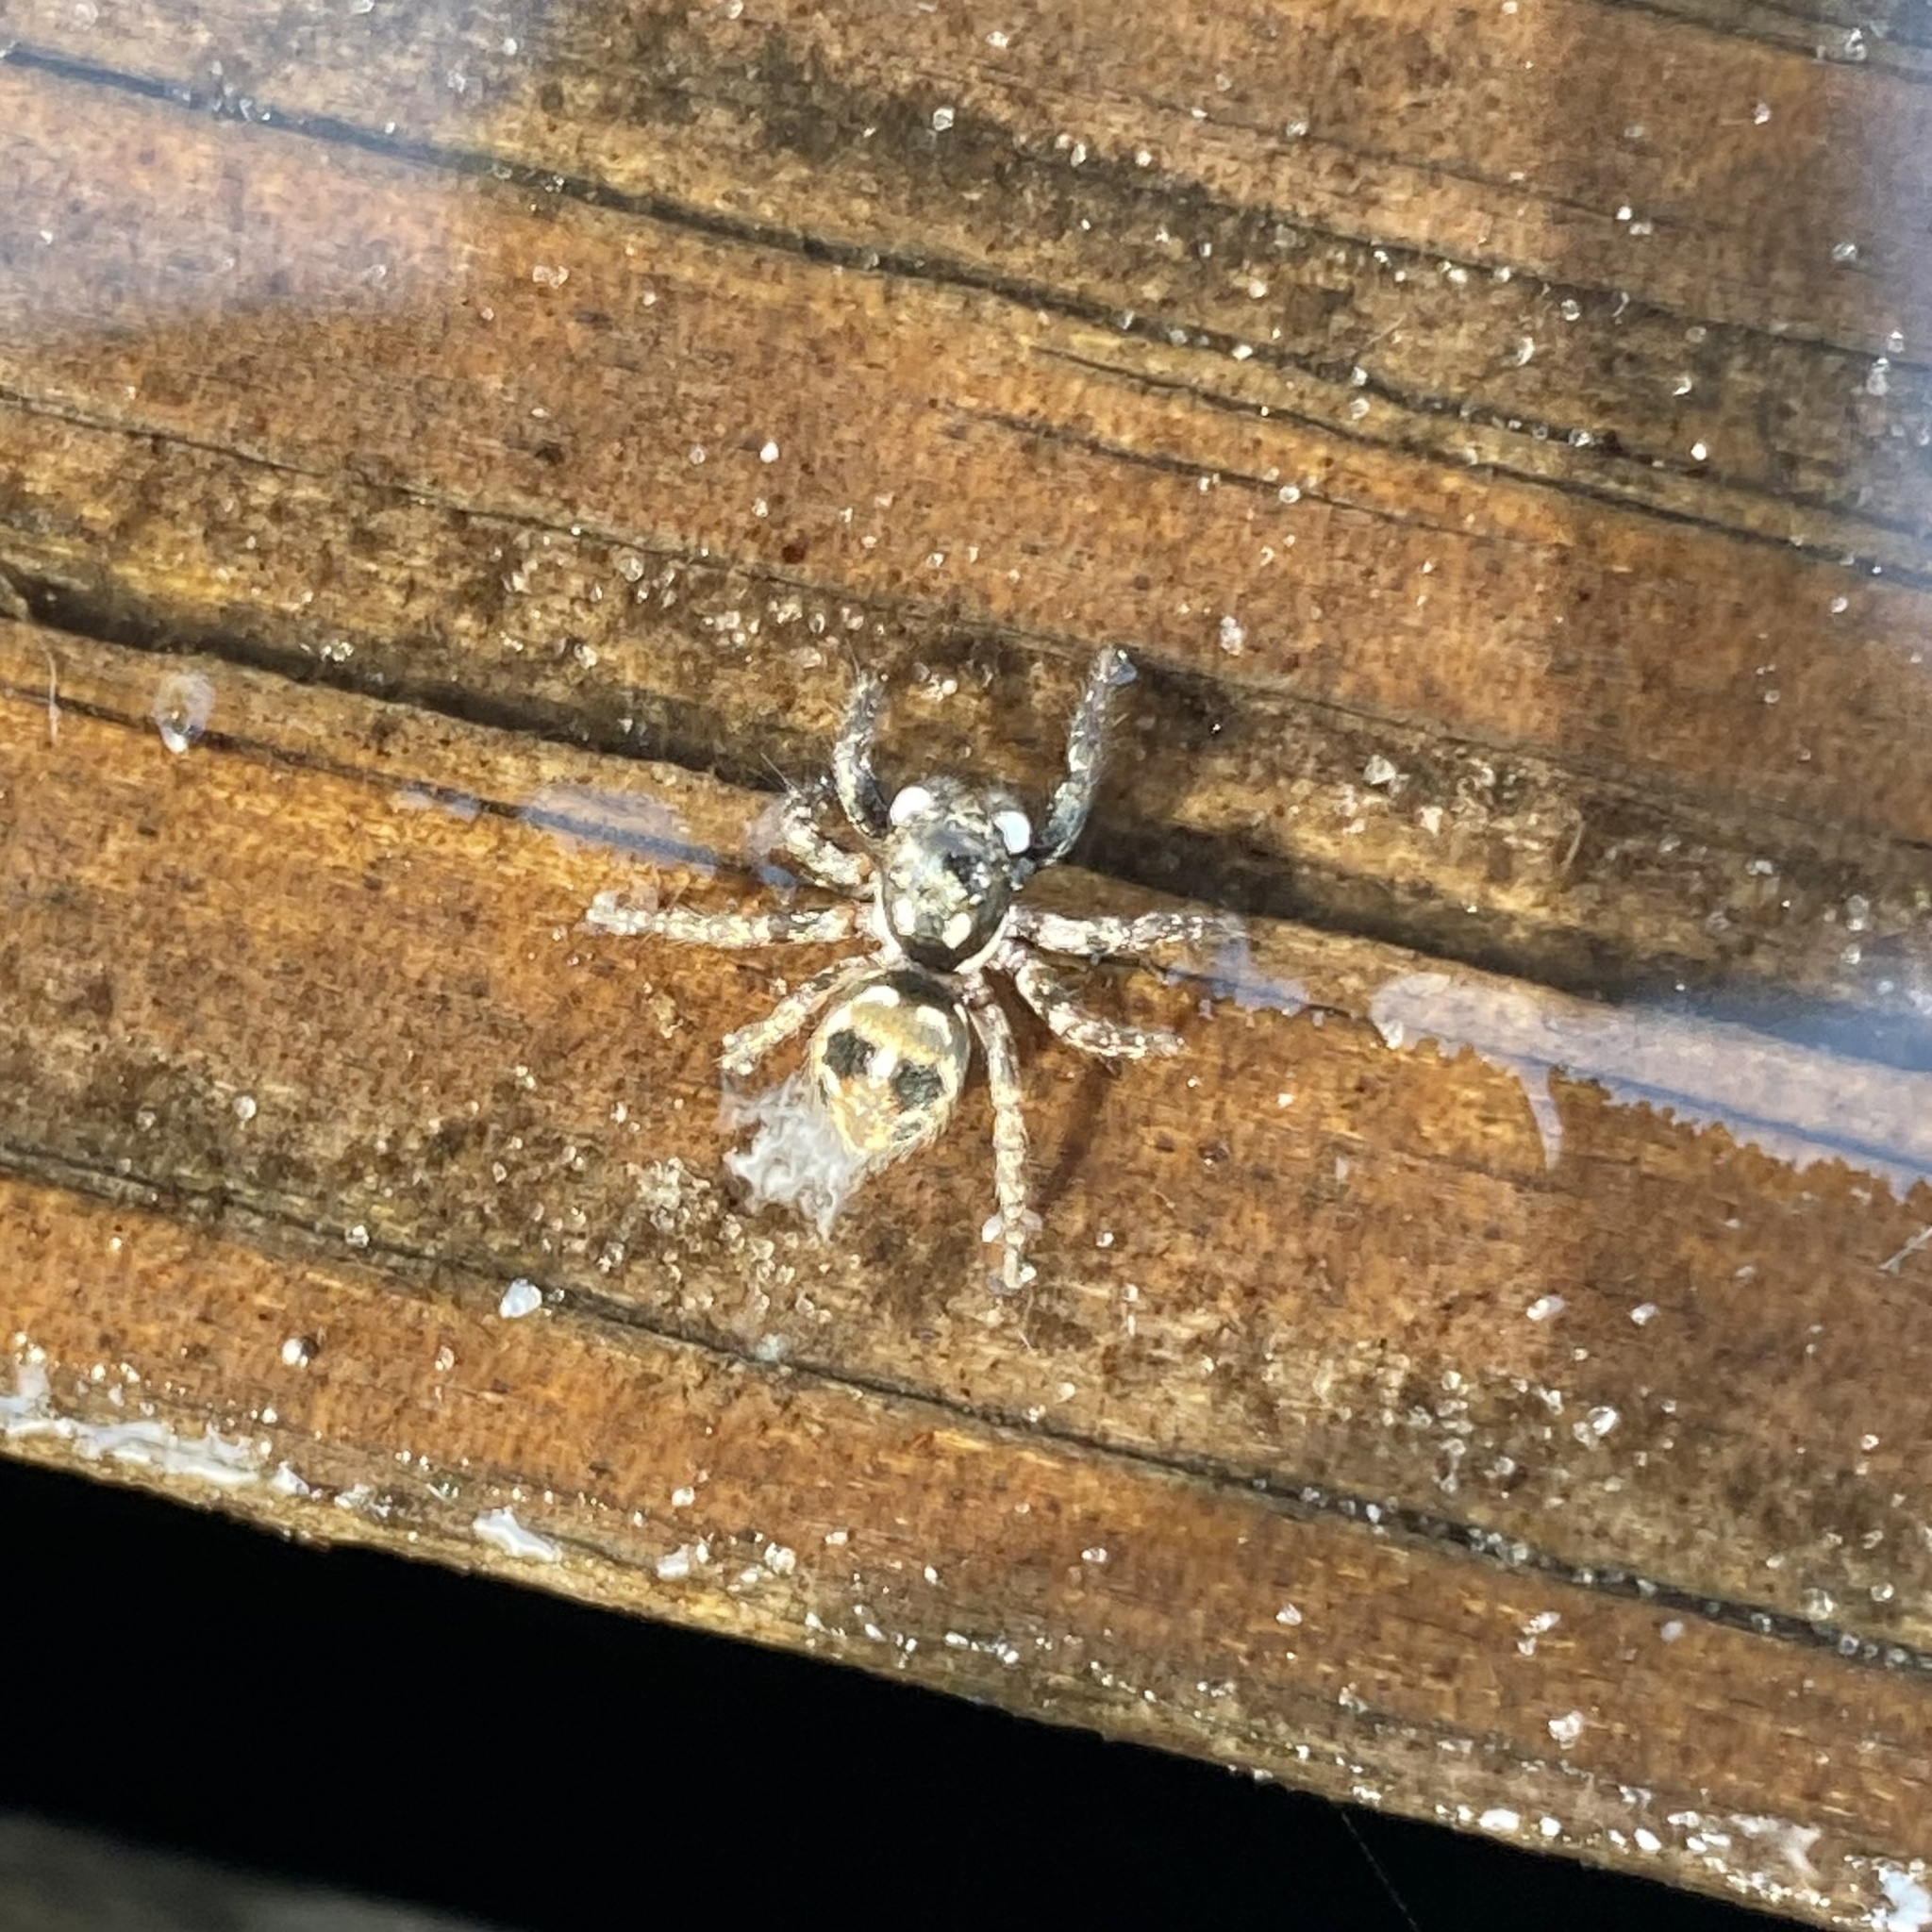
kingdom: Animalia
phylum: Arthropoda
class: Arachnida
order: Araneae
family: Salticidae
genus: Anasaitis
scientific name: Anasaitis canosa
